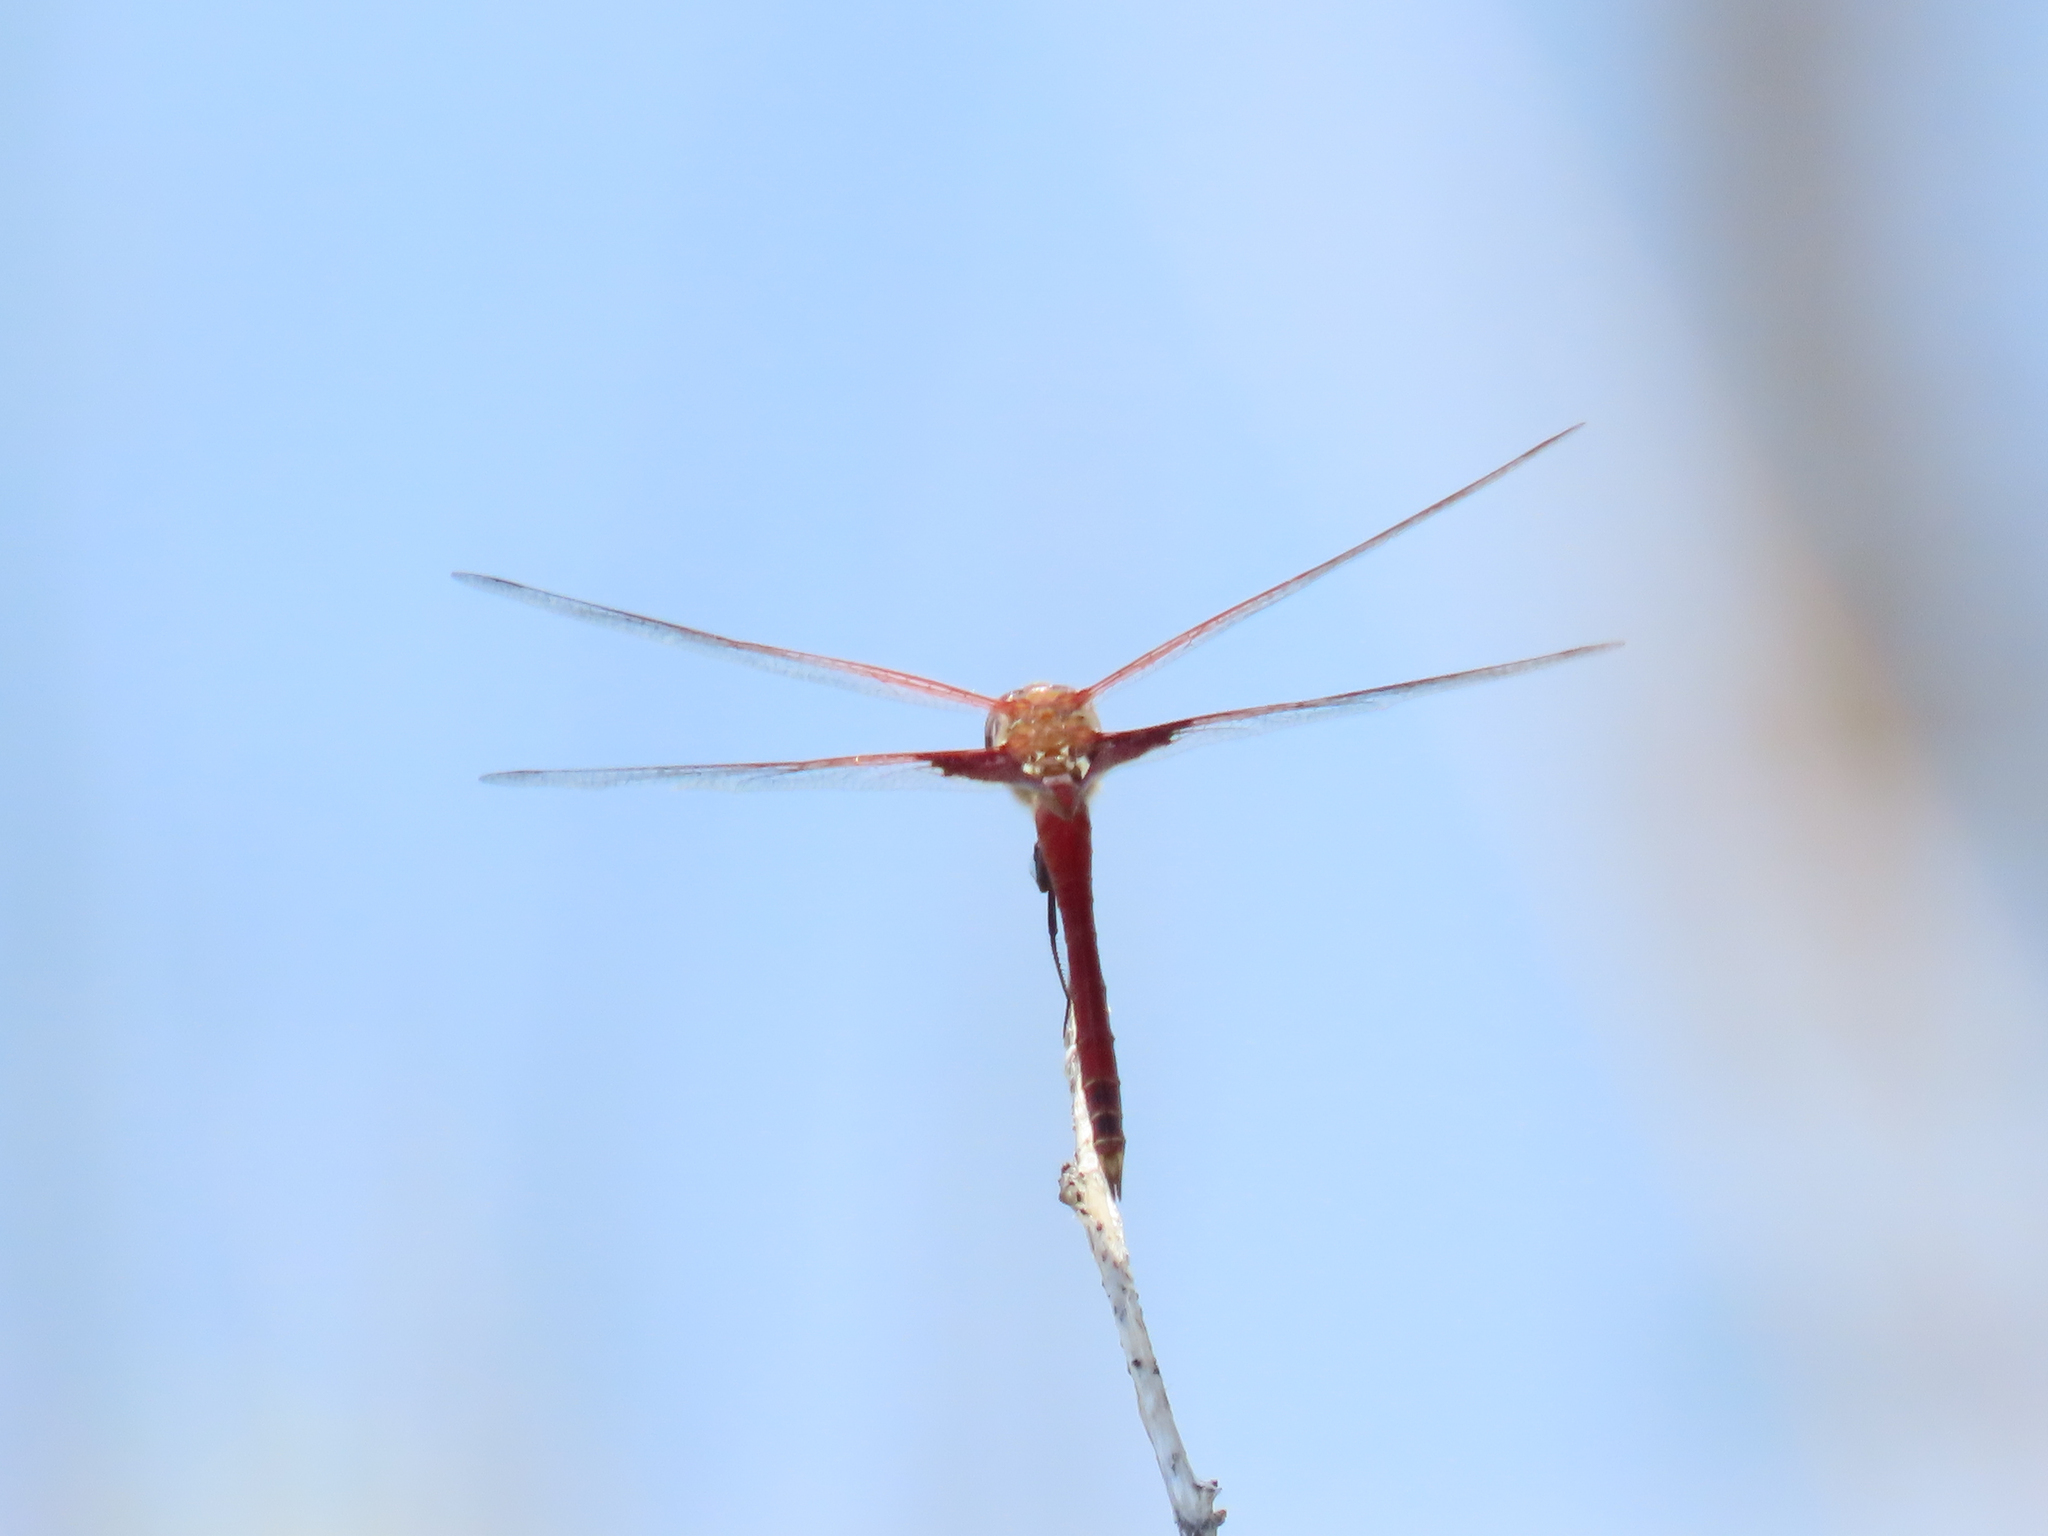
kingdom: Animalia
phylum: Arthropoda
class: Insecta
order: Odonata
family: Libellulidae
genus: Tramea
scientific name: Tramea onusta
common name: Red saddlebags
